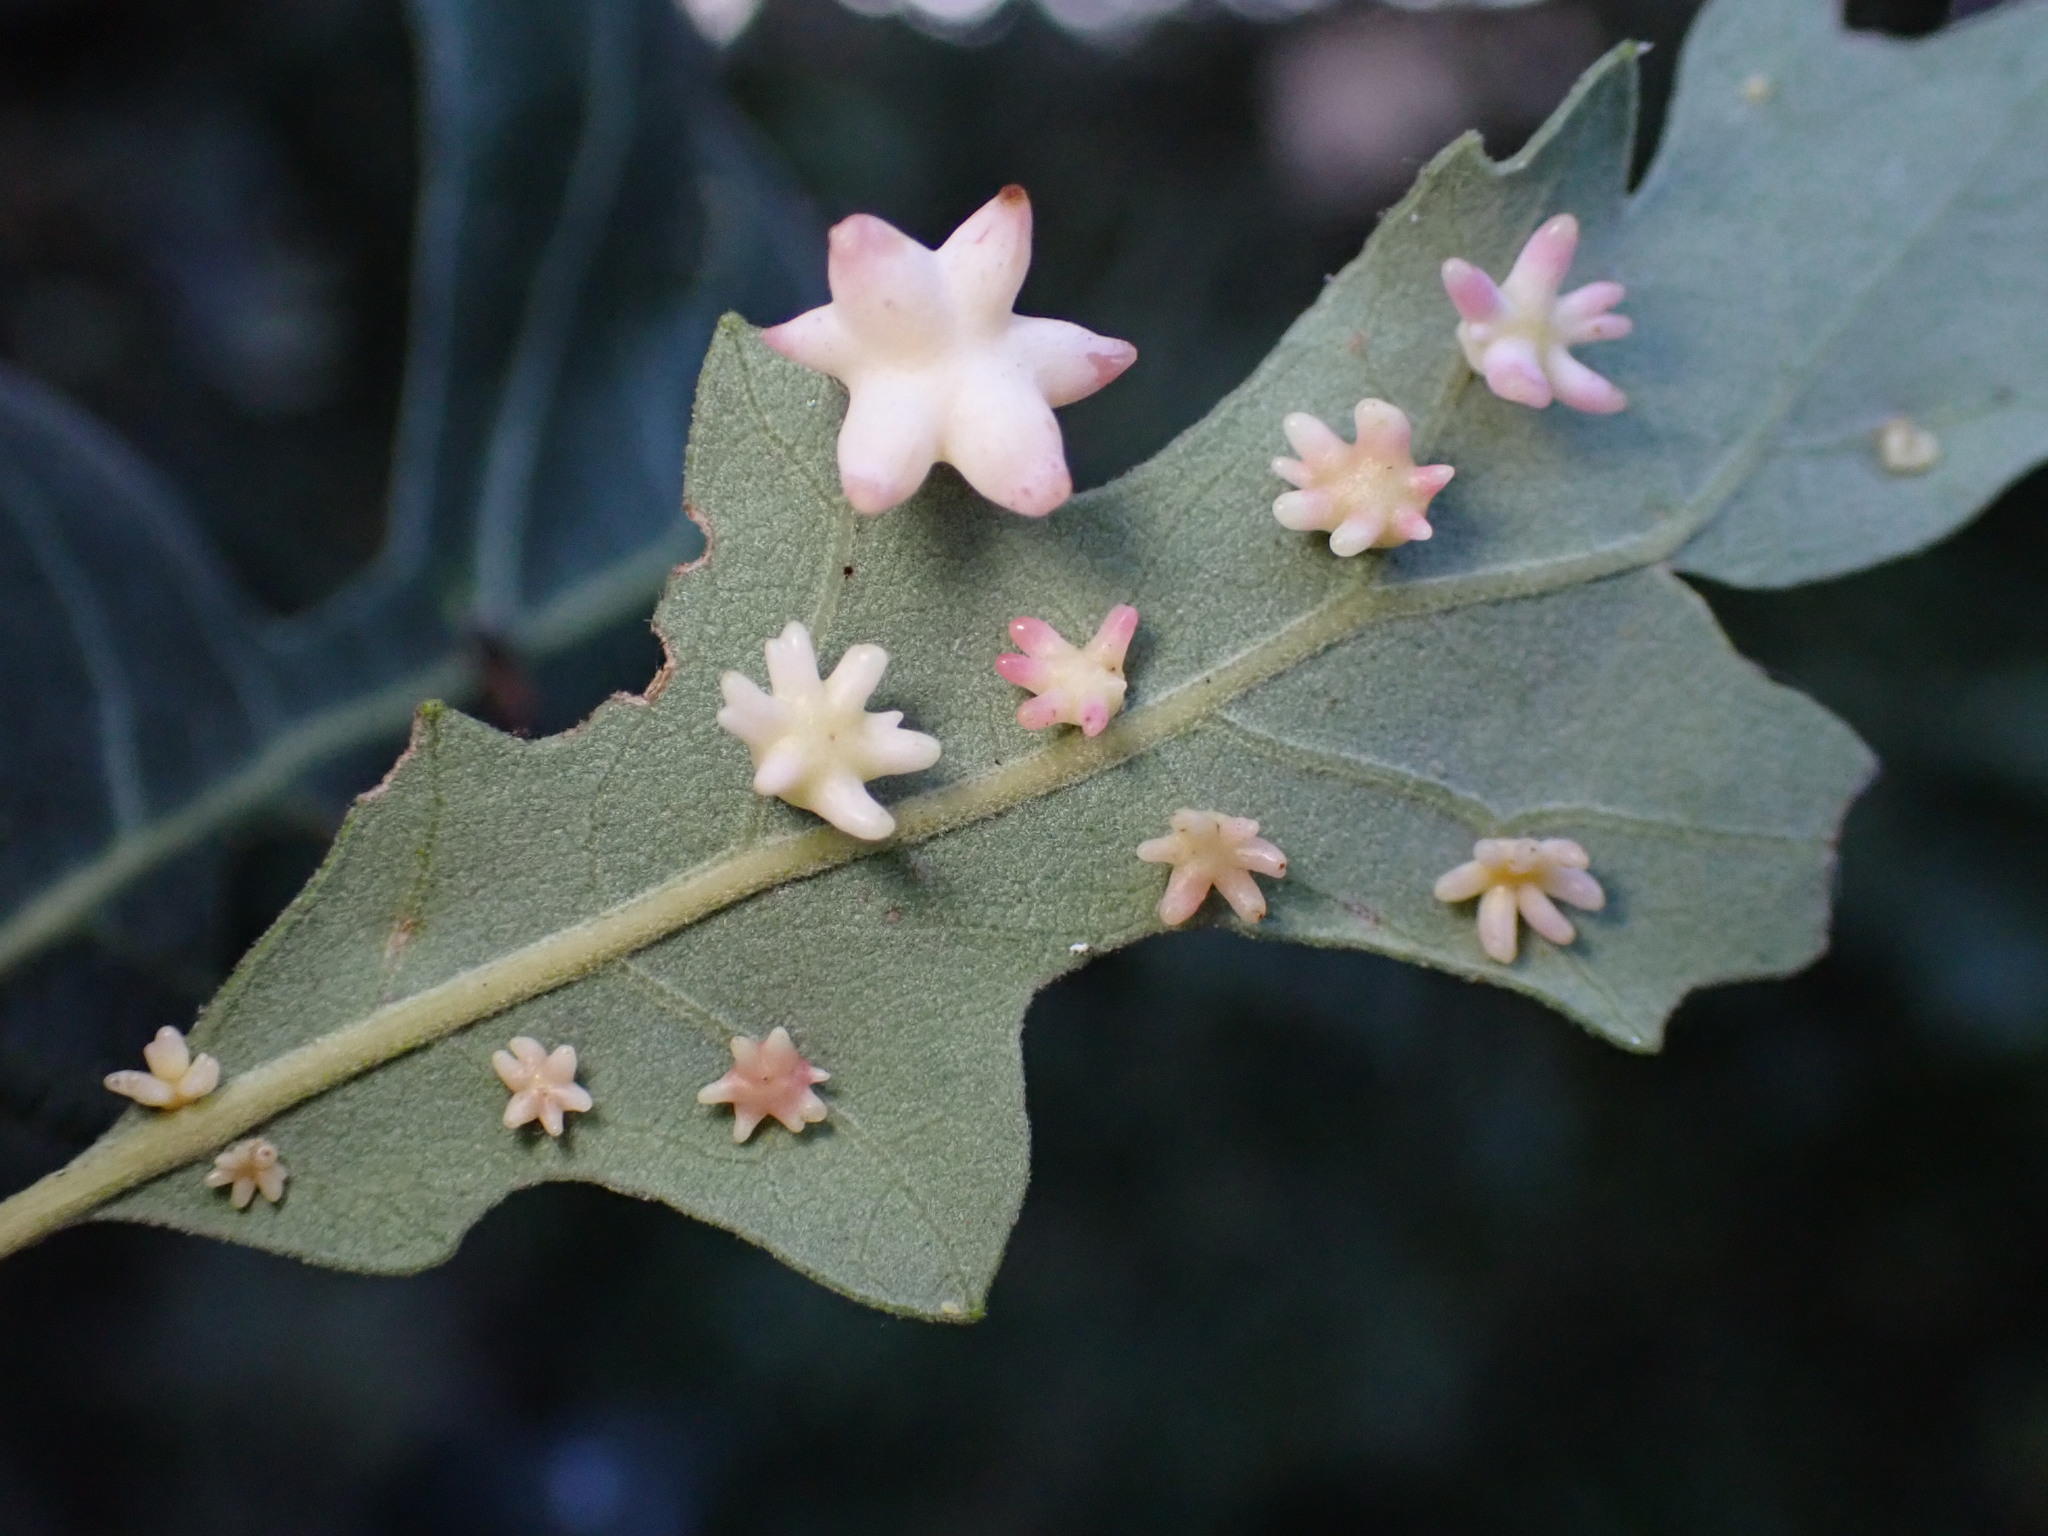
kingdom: Animalia
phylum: Arthropoda
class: Insecta
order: Hymenoptera
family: Cynipidae
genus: Cynips
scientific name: Cynips douglasi
